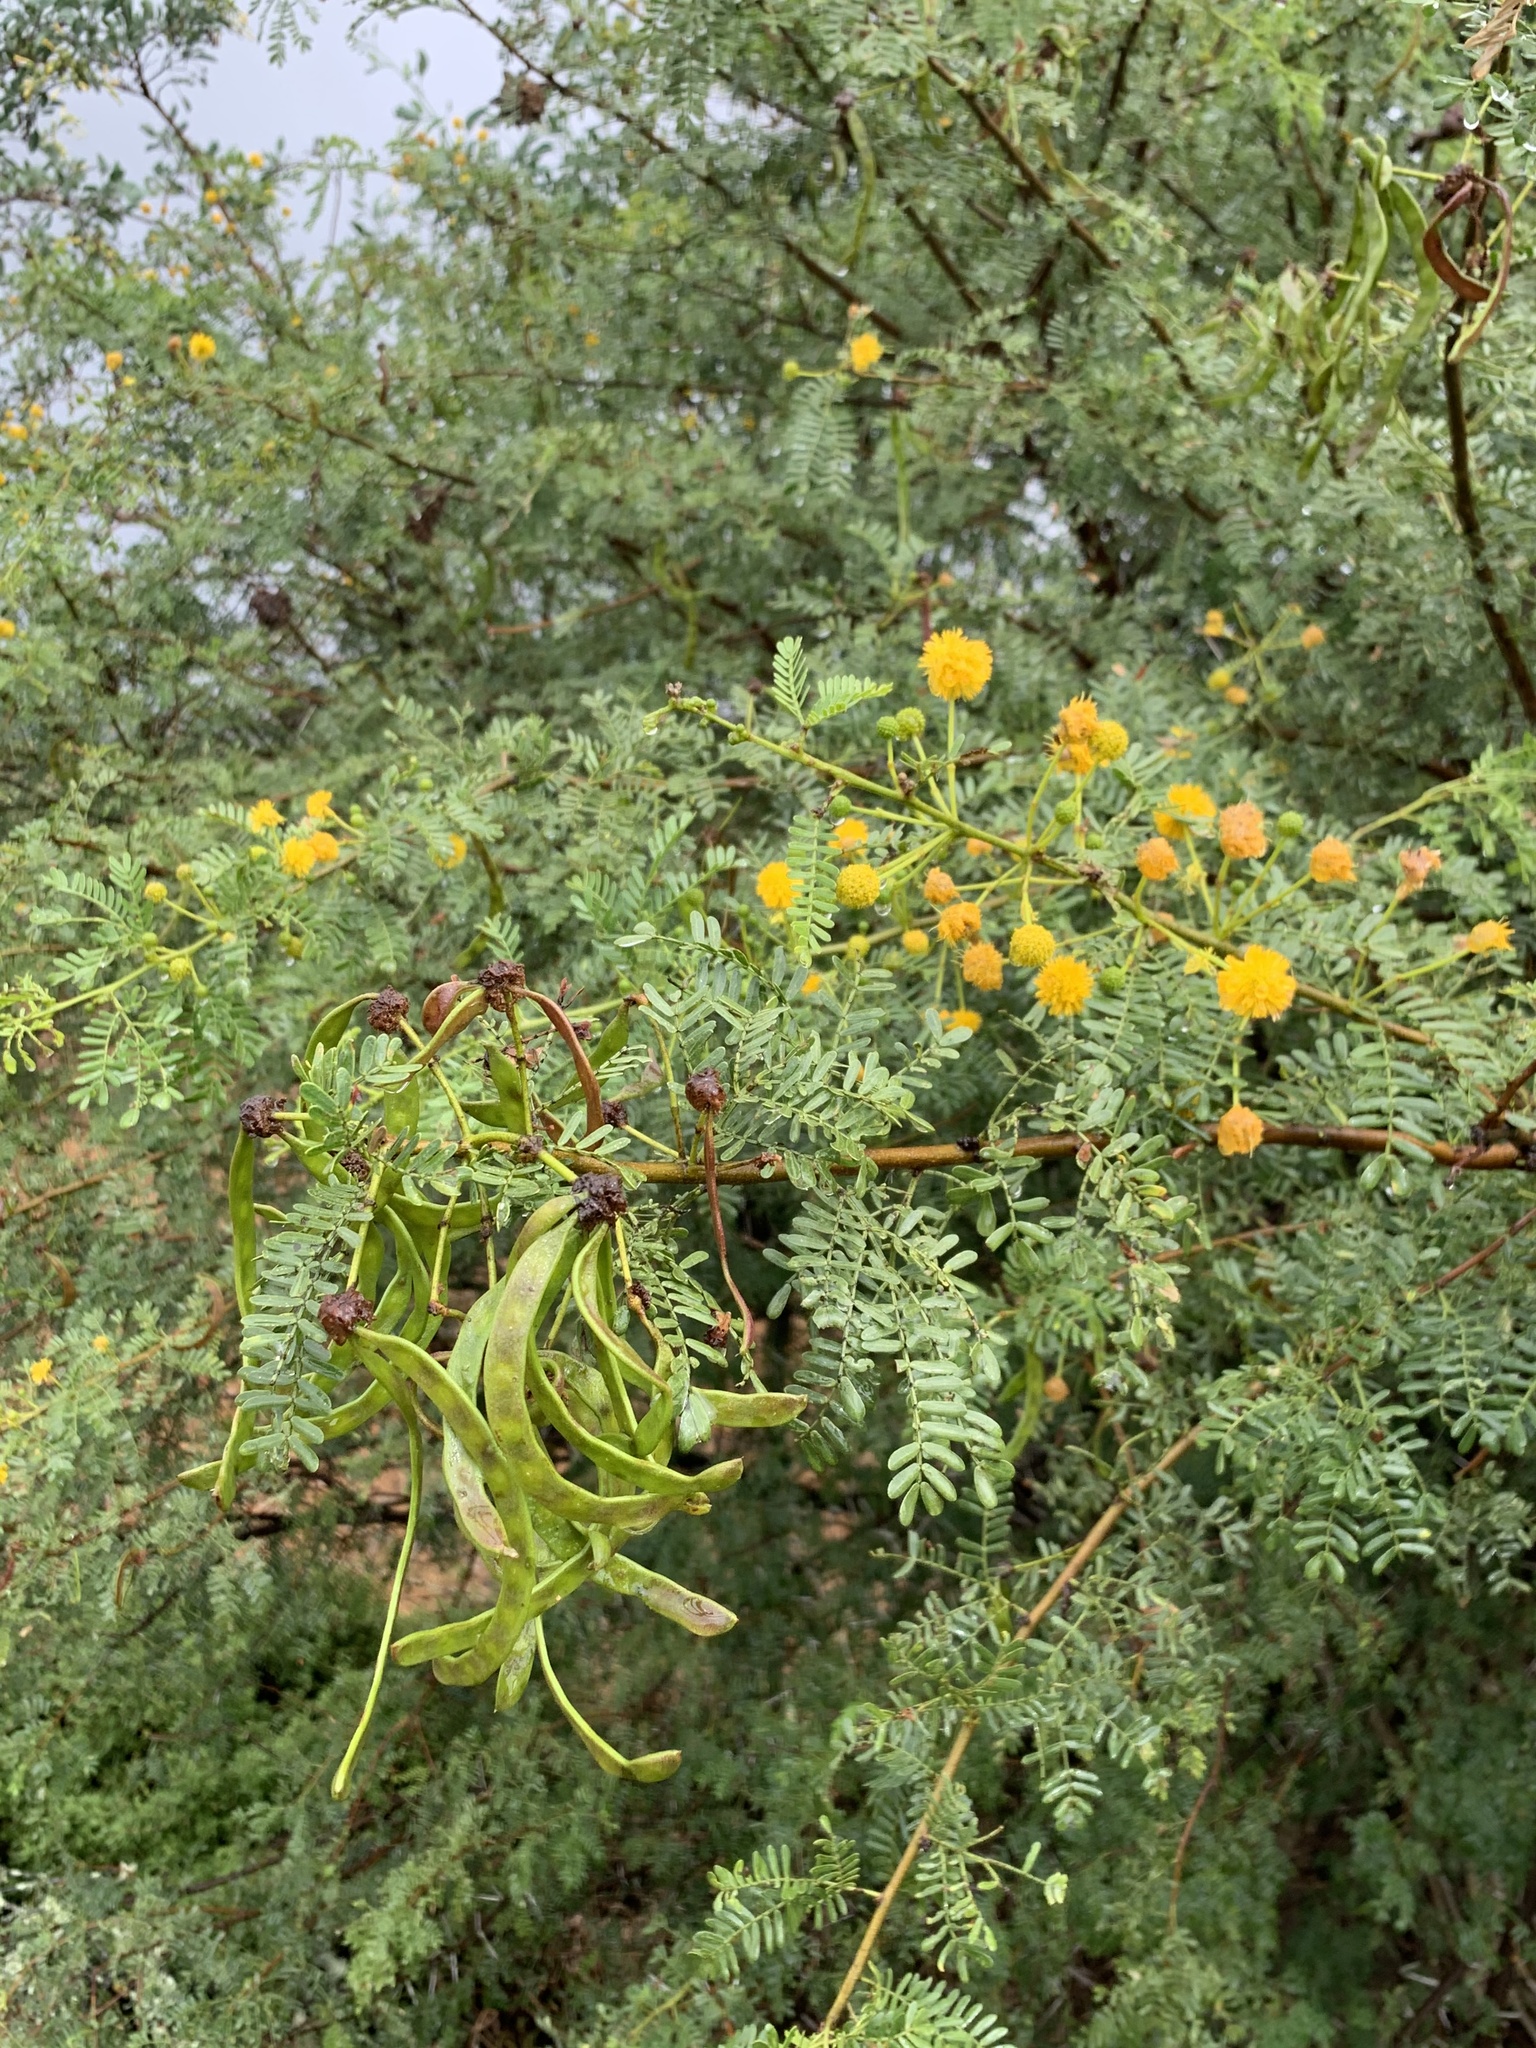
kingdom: Plantae
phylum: Tracheophyta
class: Magnoliopsida
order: Fabales
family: Fabaceae
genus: Vachellia
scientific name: Vachellia karroo
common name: Sweet thorn
